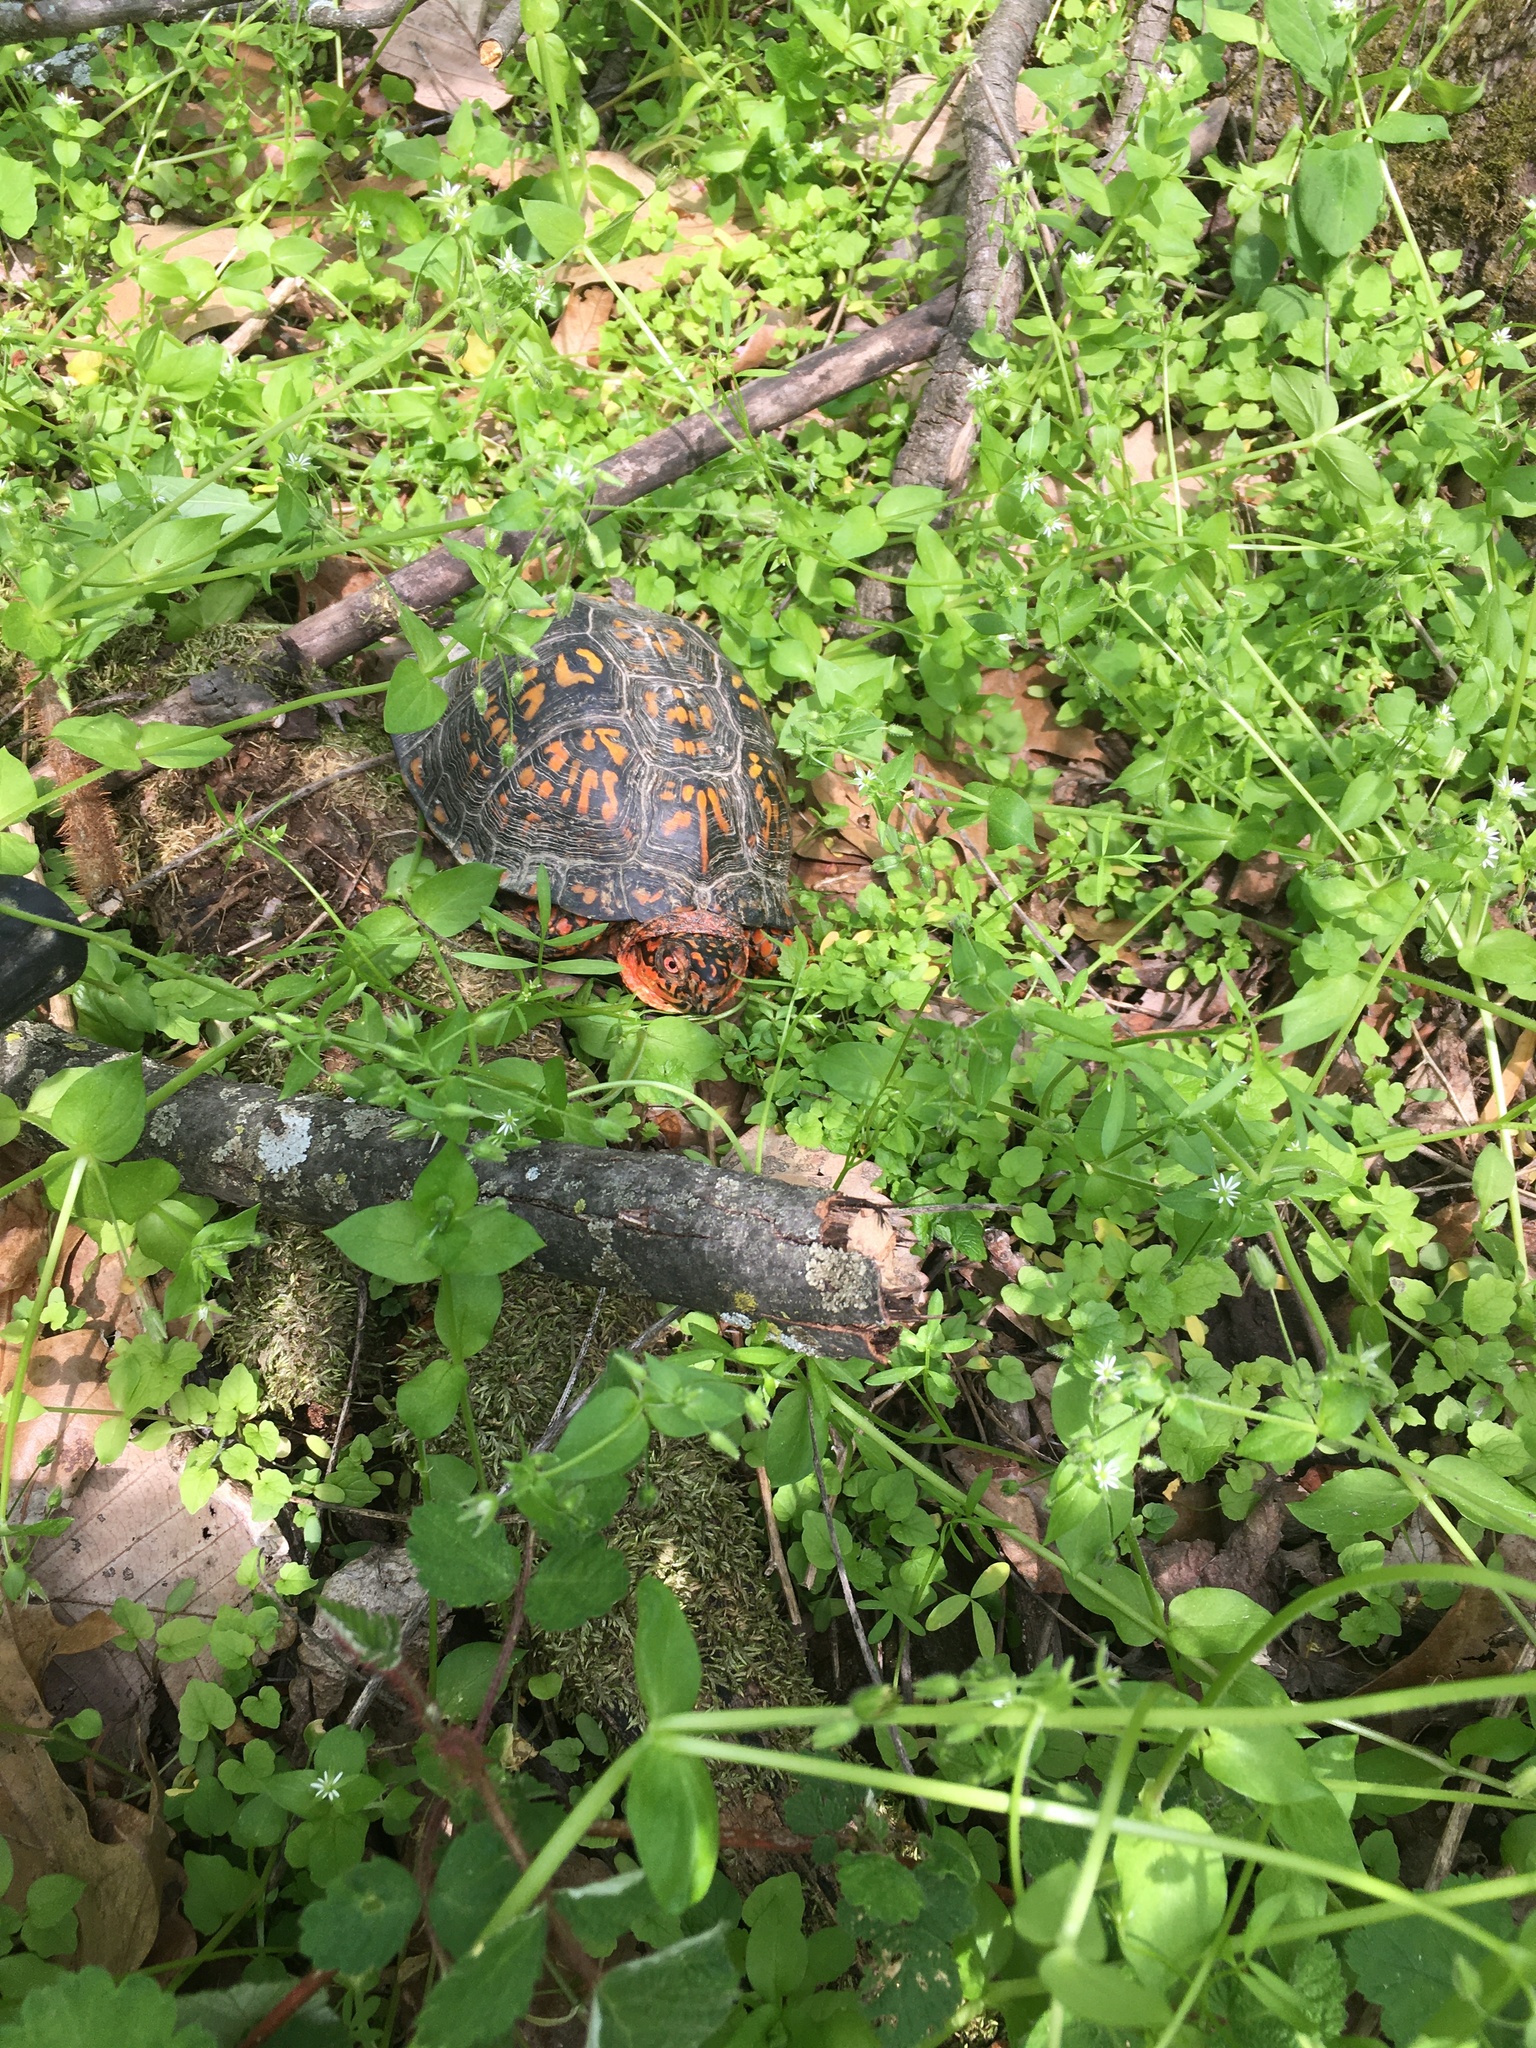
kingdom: Animalia
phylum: Chordata
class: Testudines
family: Emydidae
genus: Terrapene
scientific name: Terrapene carolina
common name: Common box turtle
